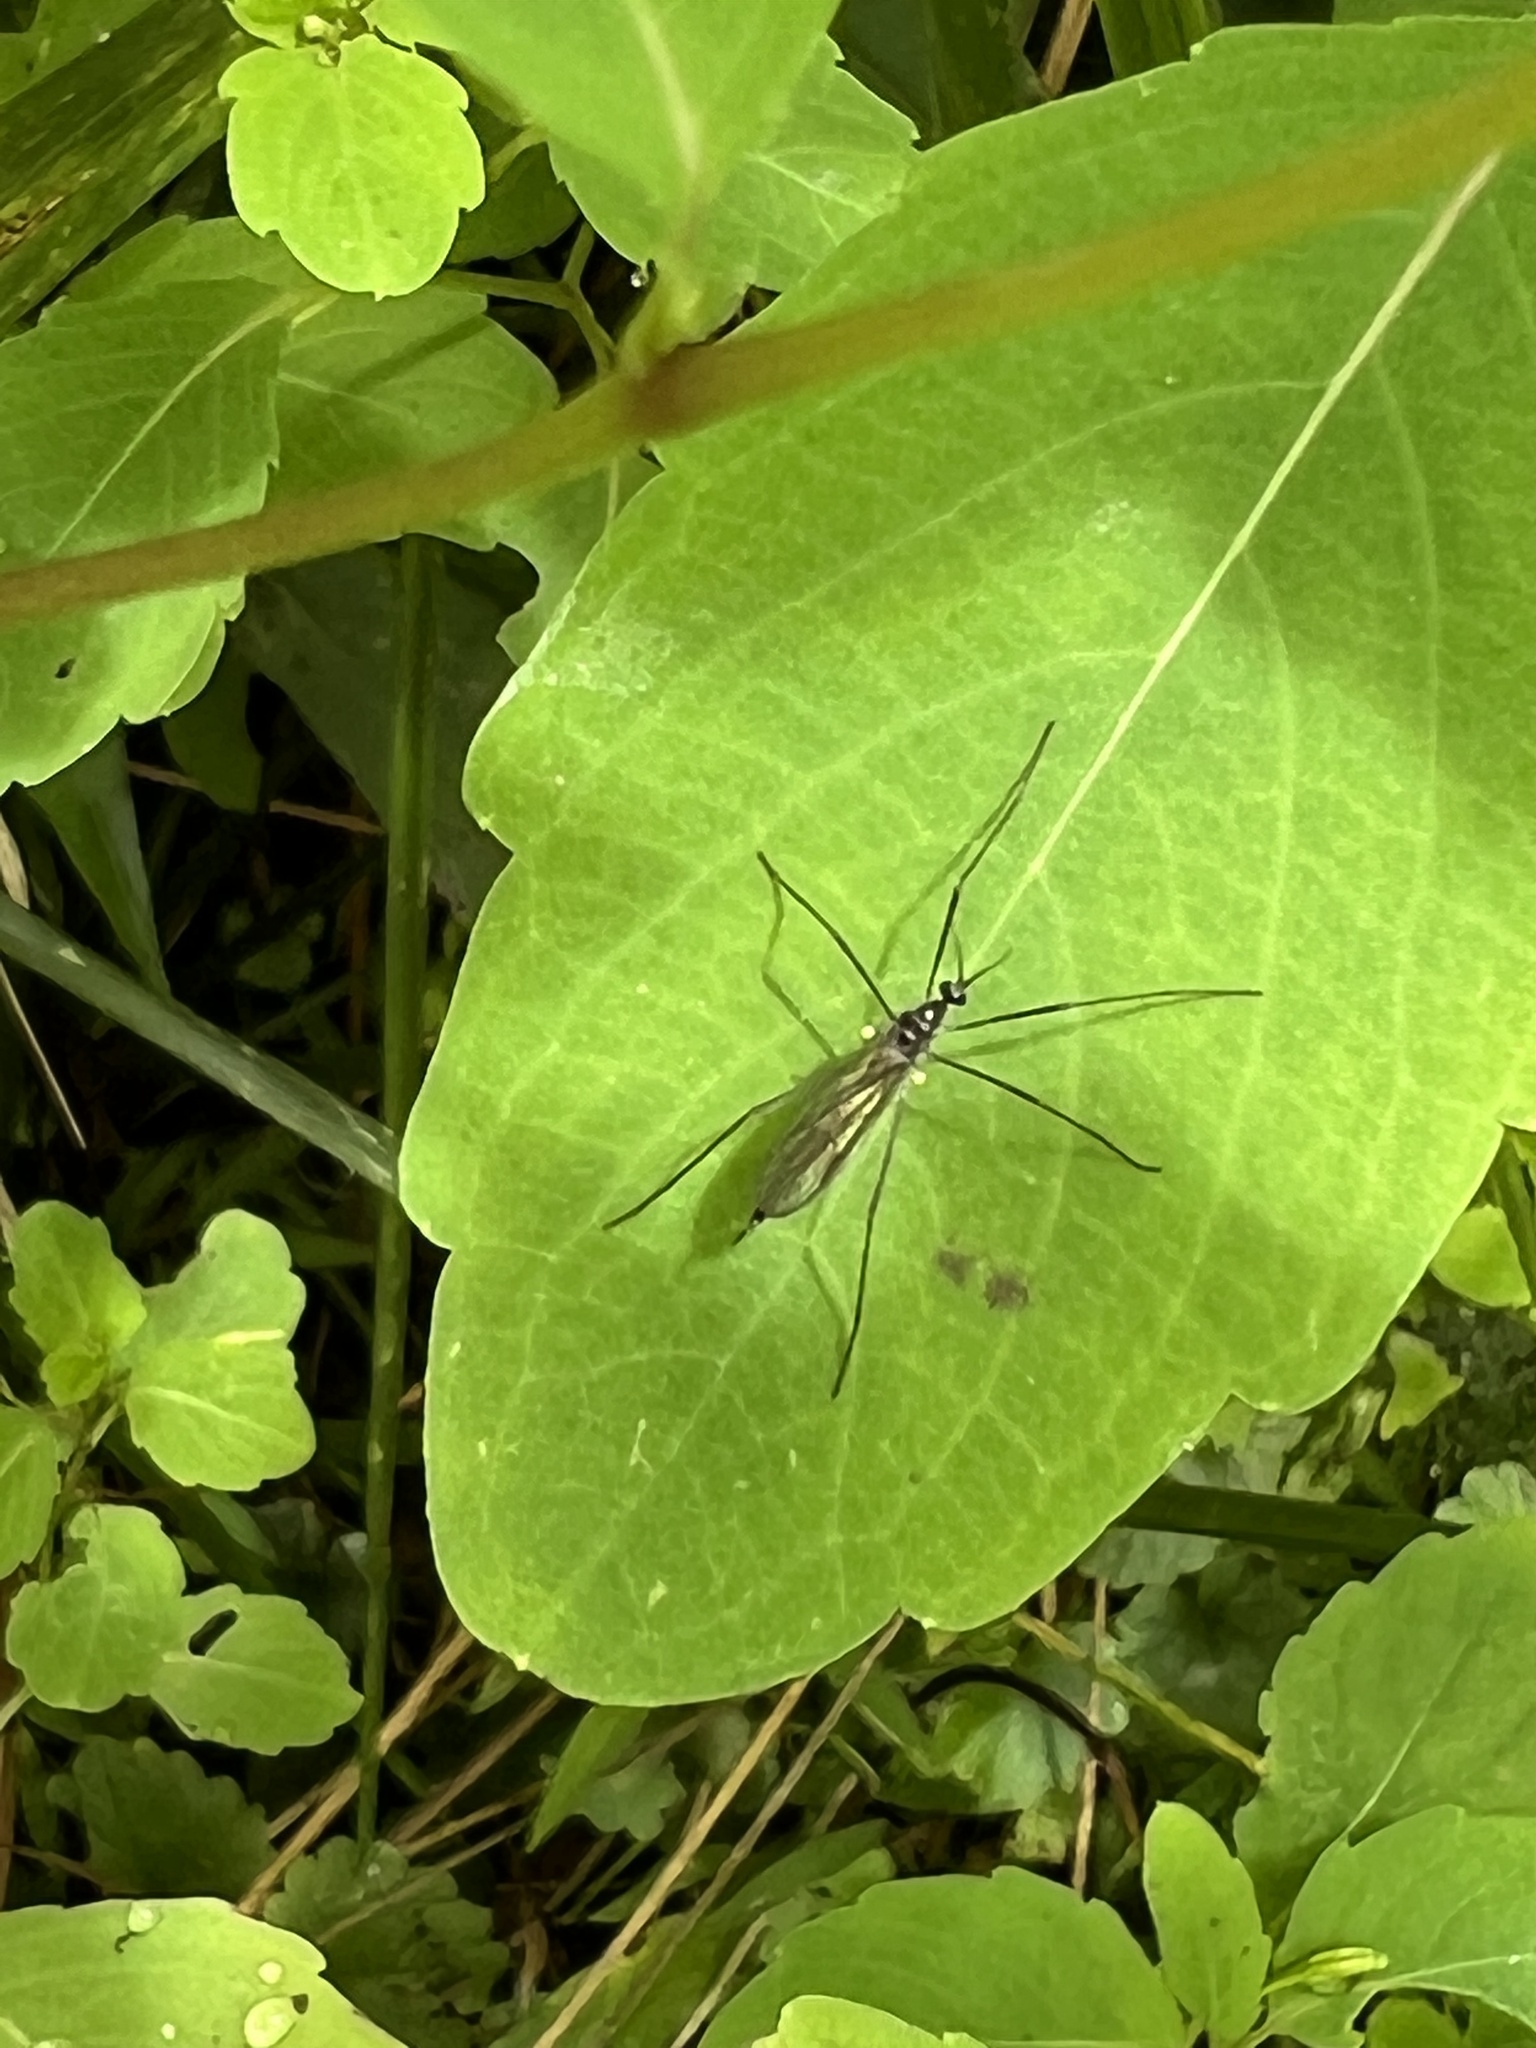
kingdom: Animalia
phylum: Arthropoda
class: Insecta
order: Diptera
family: Limoniidae
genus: Gnophomyia
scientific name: Gnophomyia tristissima
